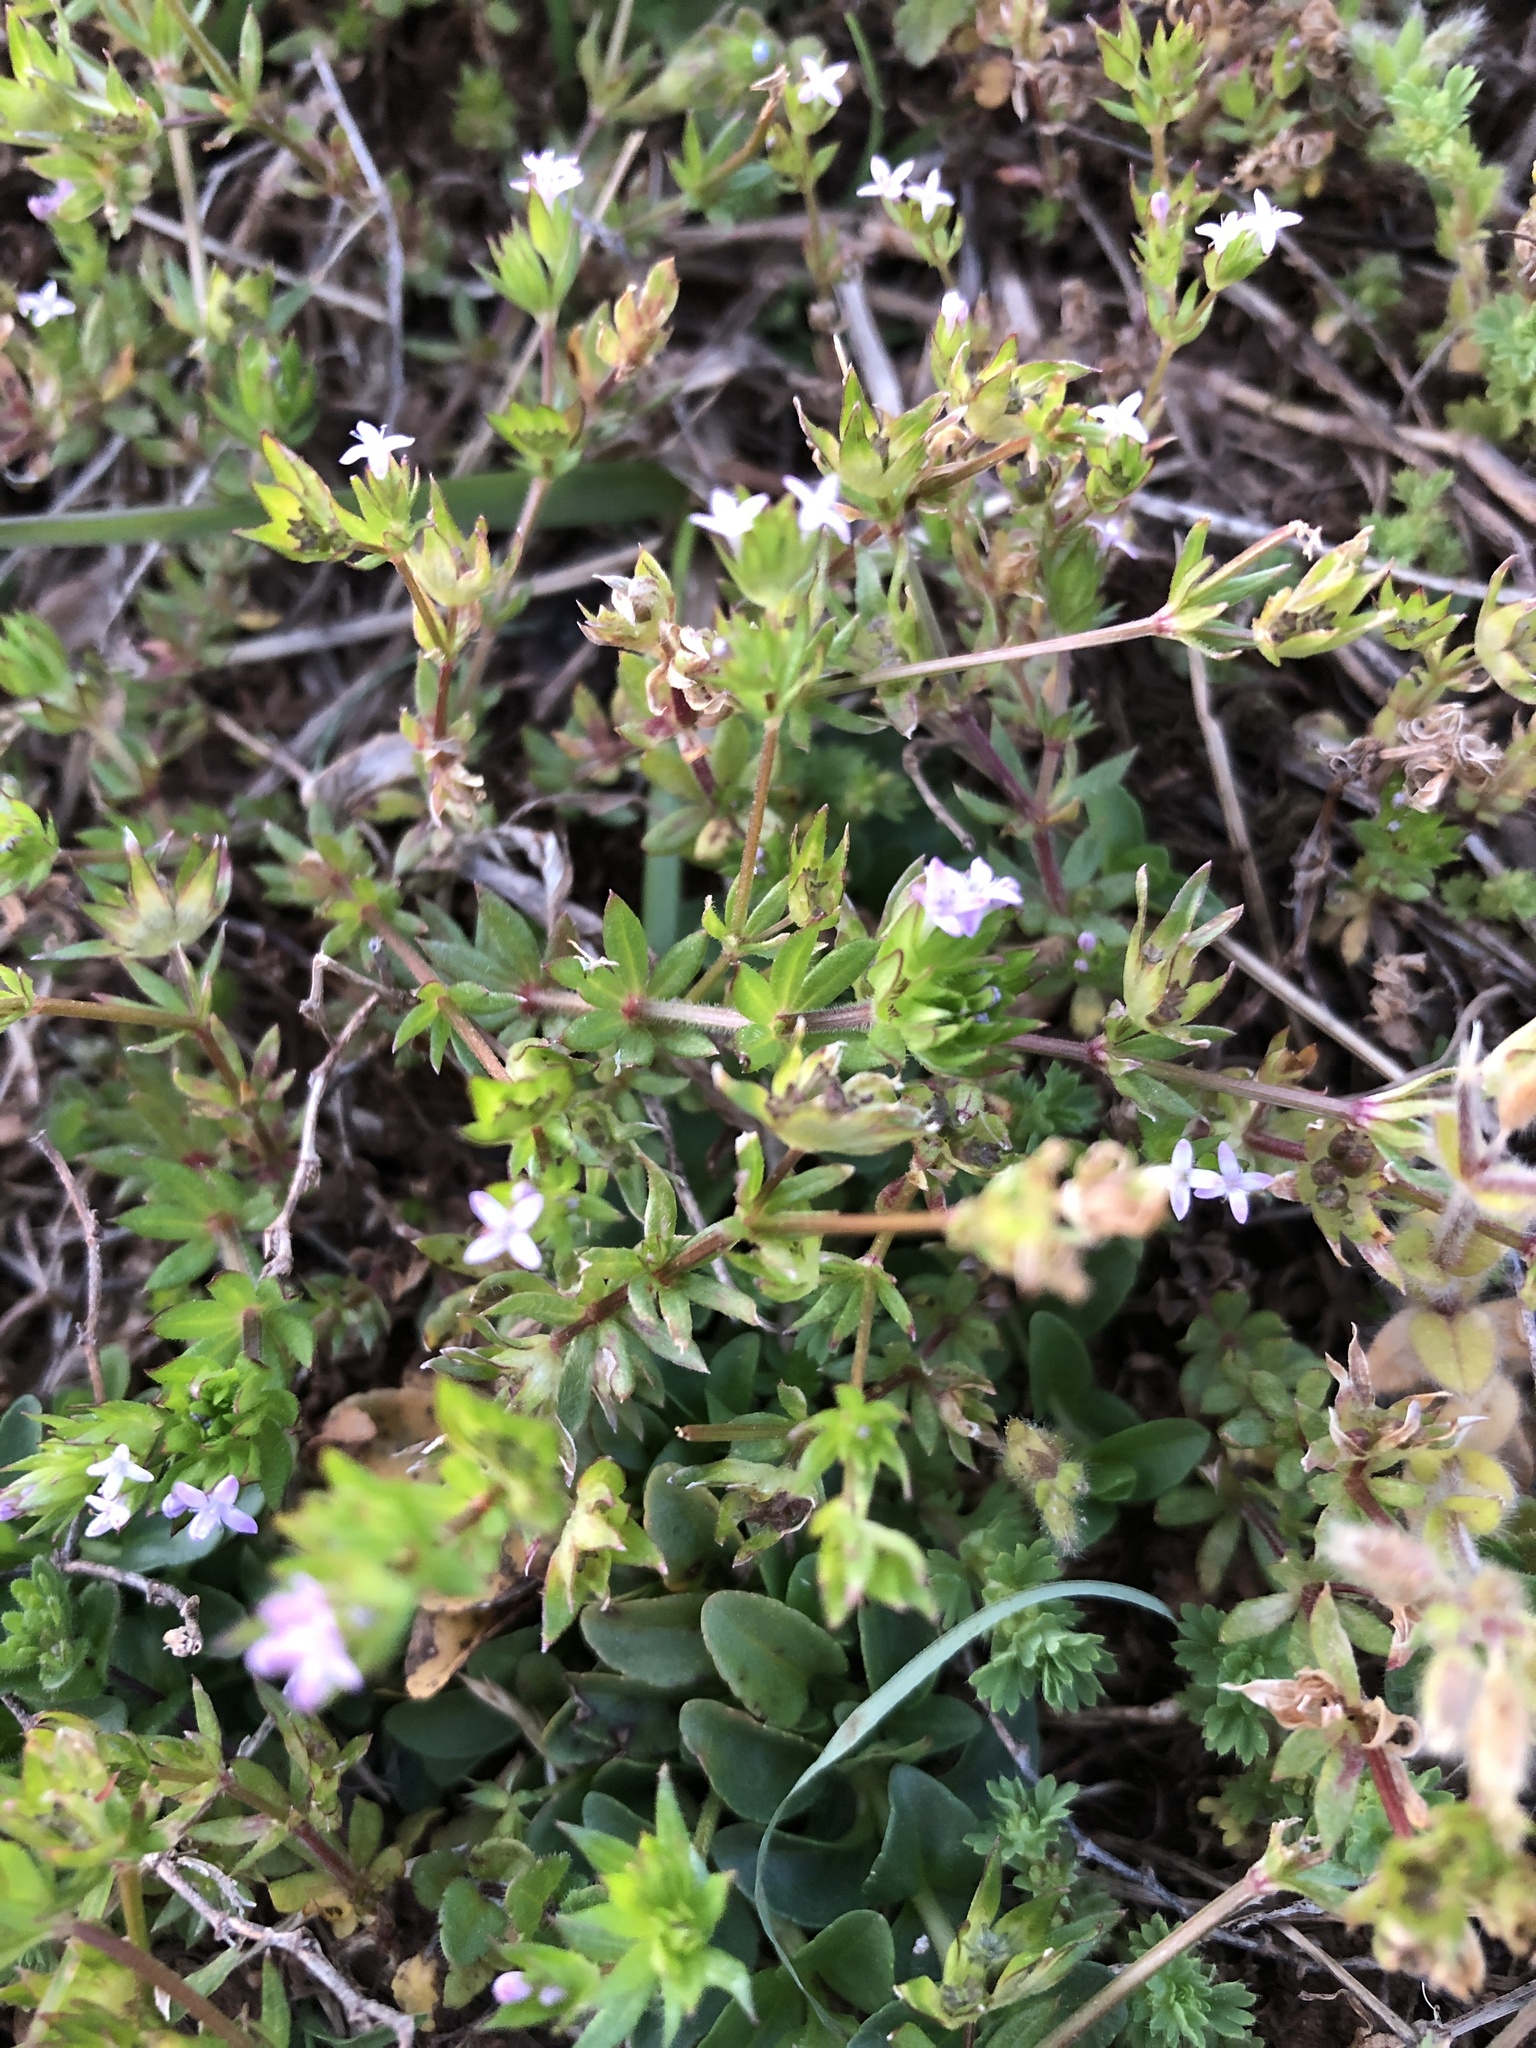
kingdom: Plantae
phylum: Tracheophyta
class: Magnoliopsida
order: Gentianales
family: Rubiaceae
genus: Sherardia
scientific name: Sherardia arvensis
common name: Field madder
